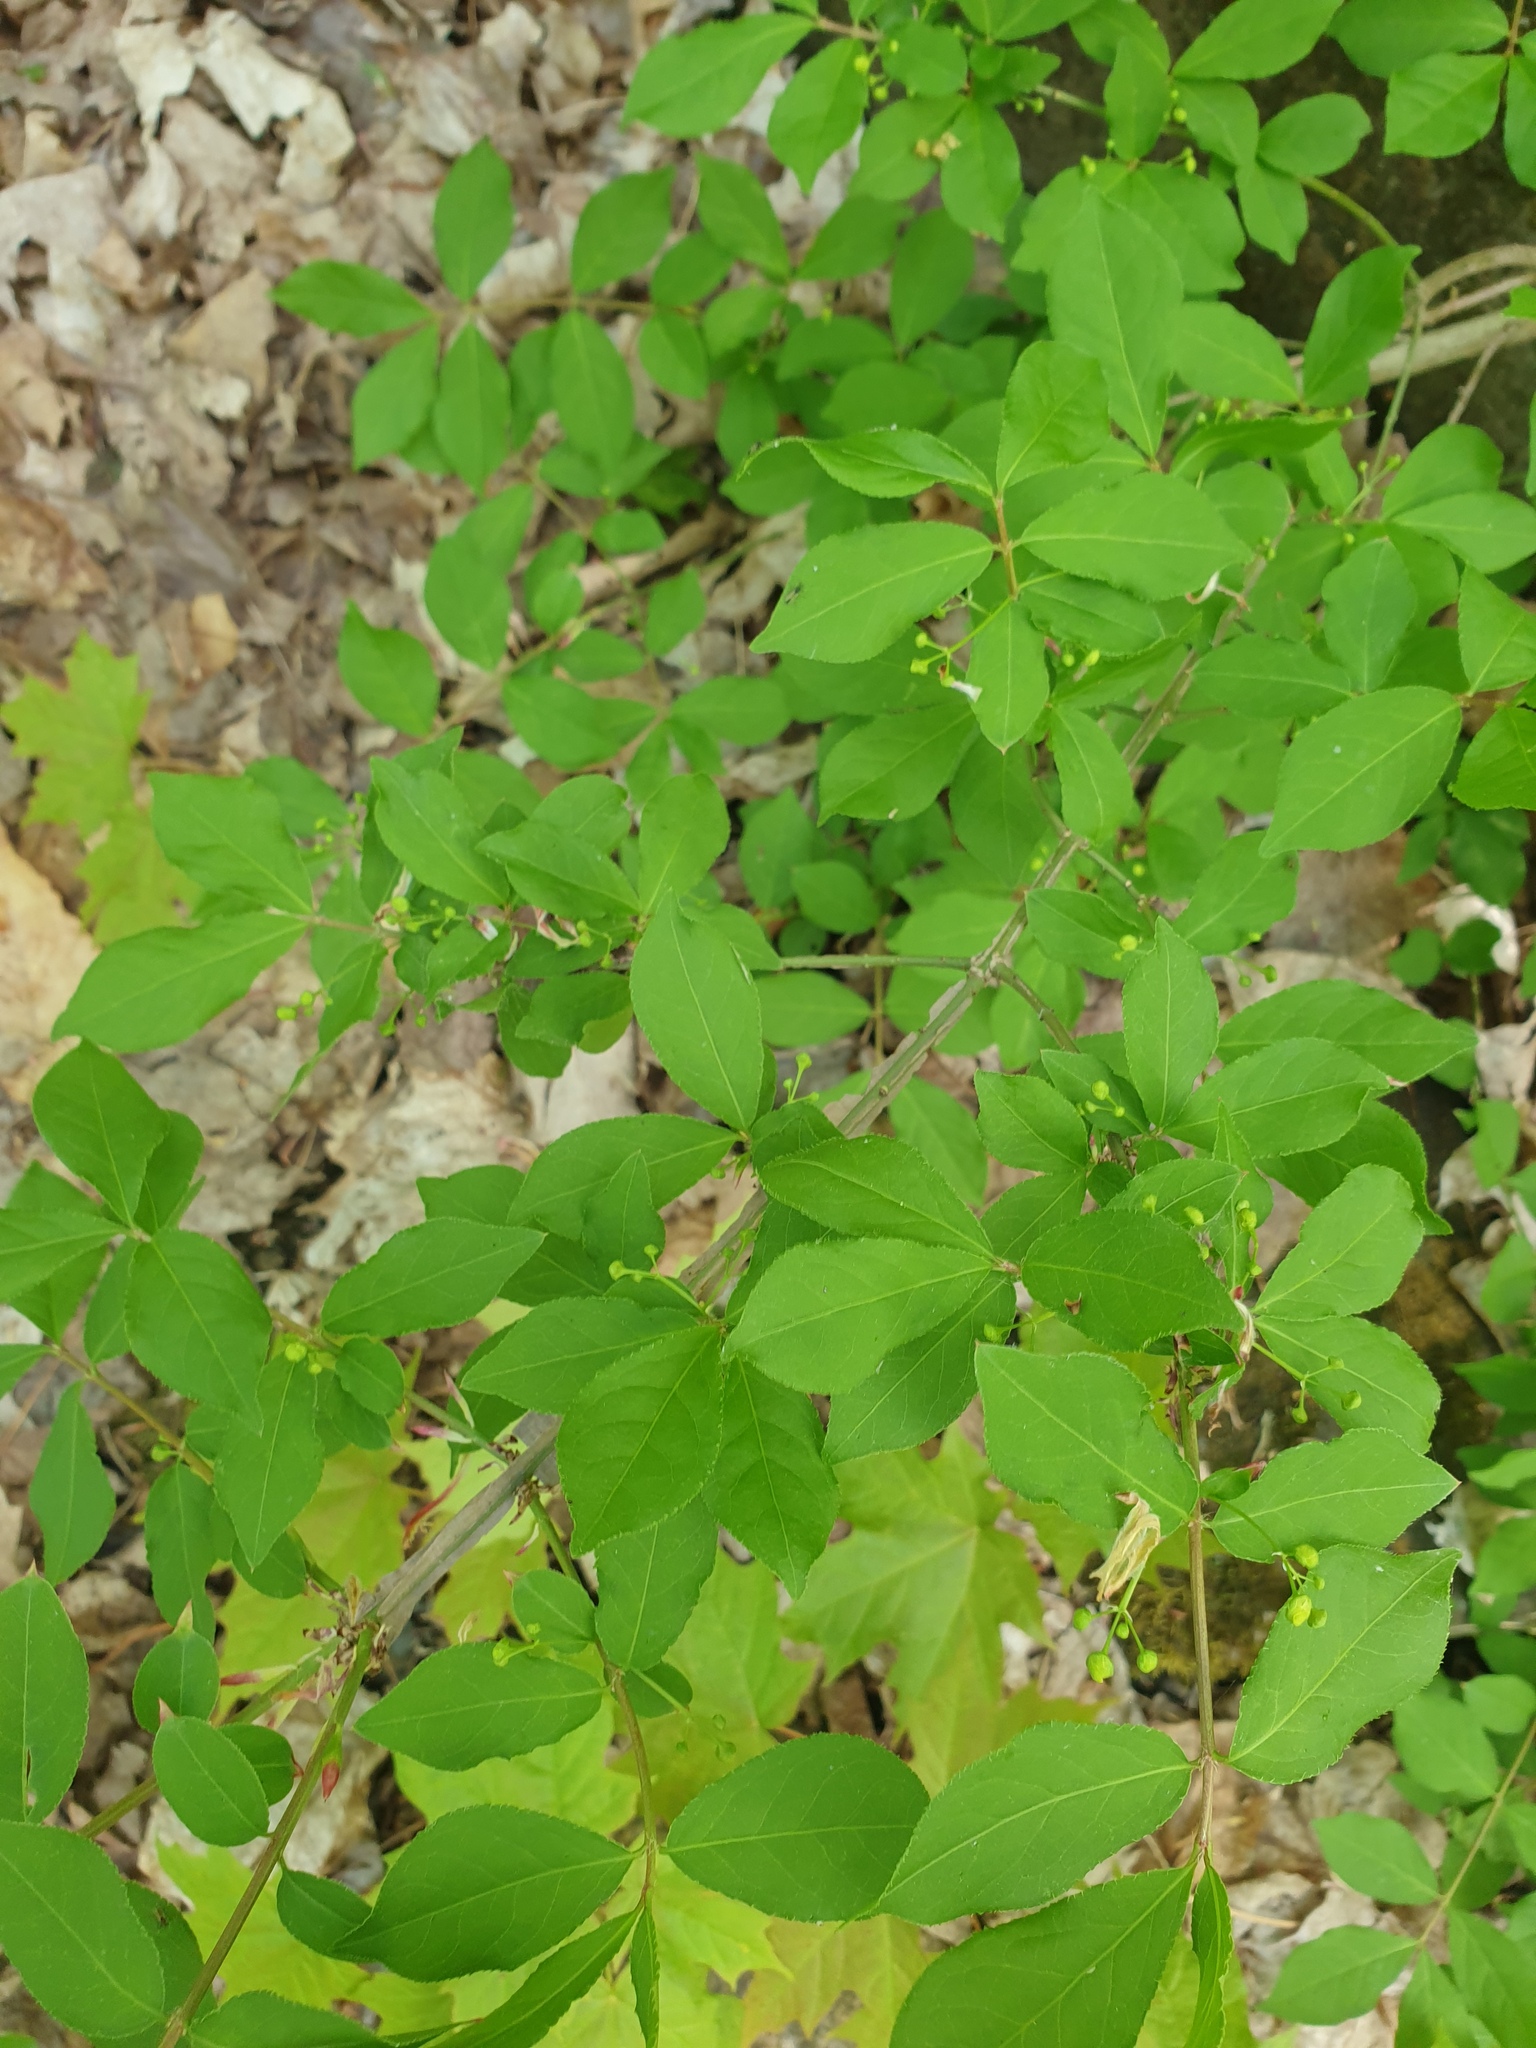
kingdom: Plantae
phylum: Tracheophyta
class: Magnoliopsida
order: Celastrales
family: Celastraceae
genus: Euonymus
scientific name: Euonymus alatus
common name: Winged euonymus
